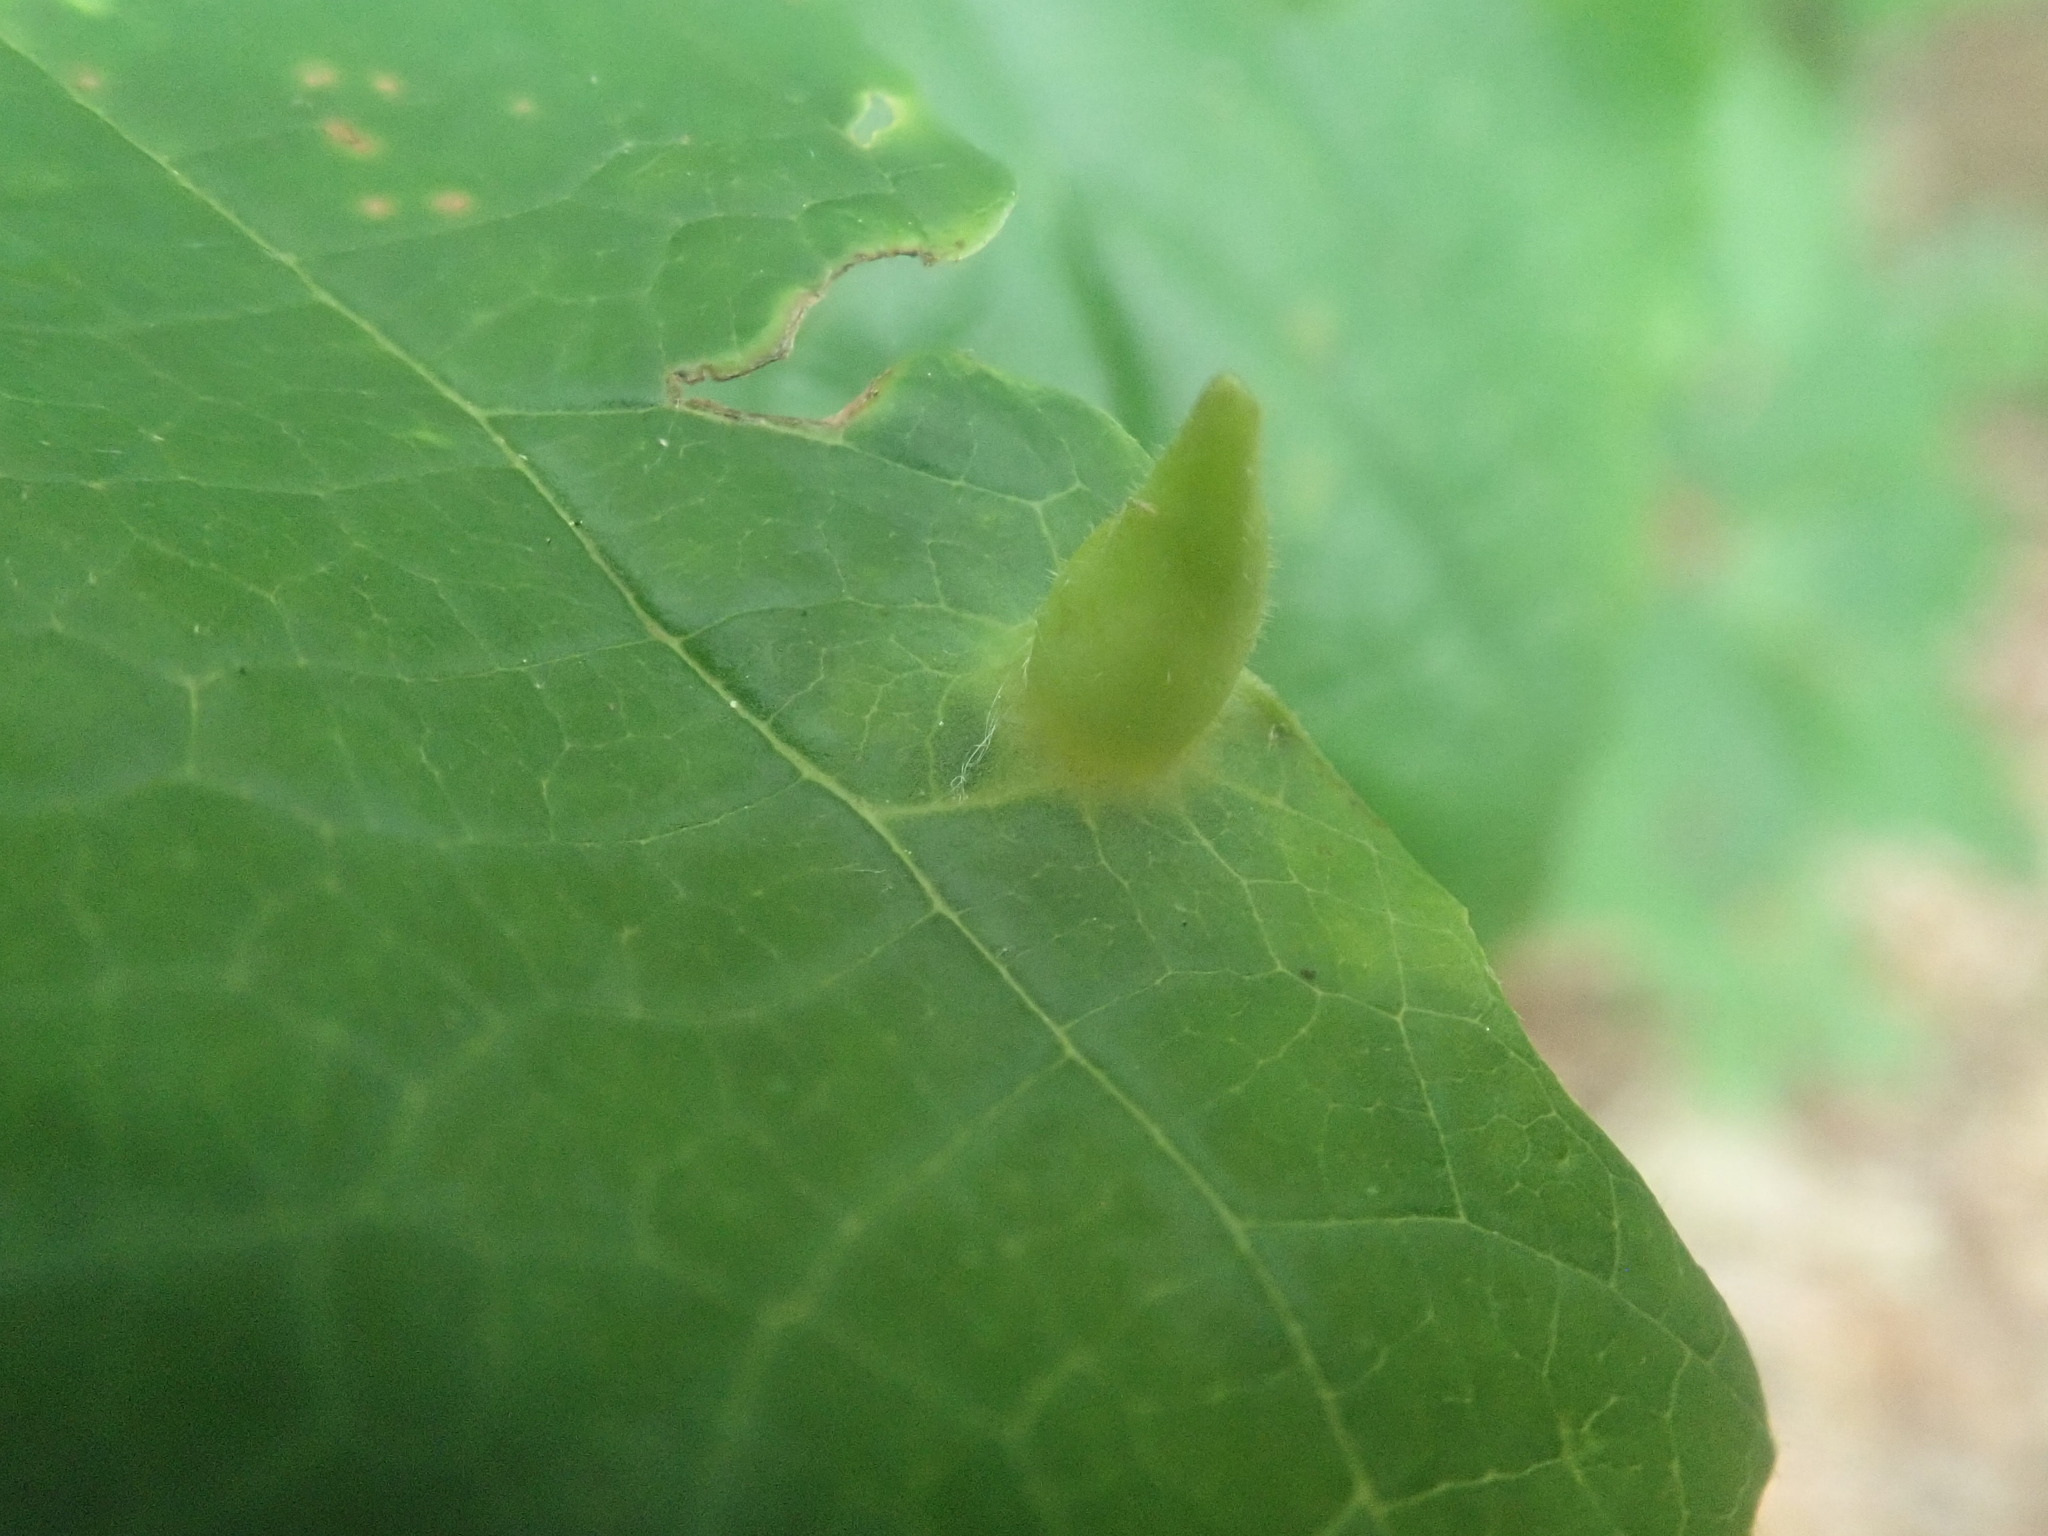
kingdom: Animalia
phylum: Arthropoda
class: Insecta
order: Hemiptera
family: Aphididae
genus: Hormaphis
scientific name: Hormaphis hamamelidis
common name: Witch-hazel cone gall aphid
